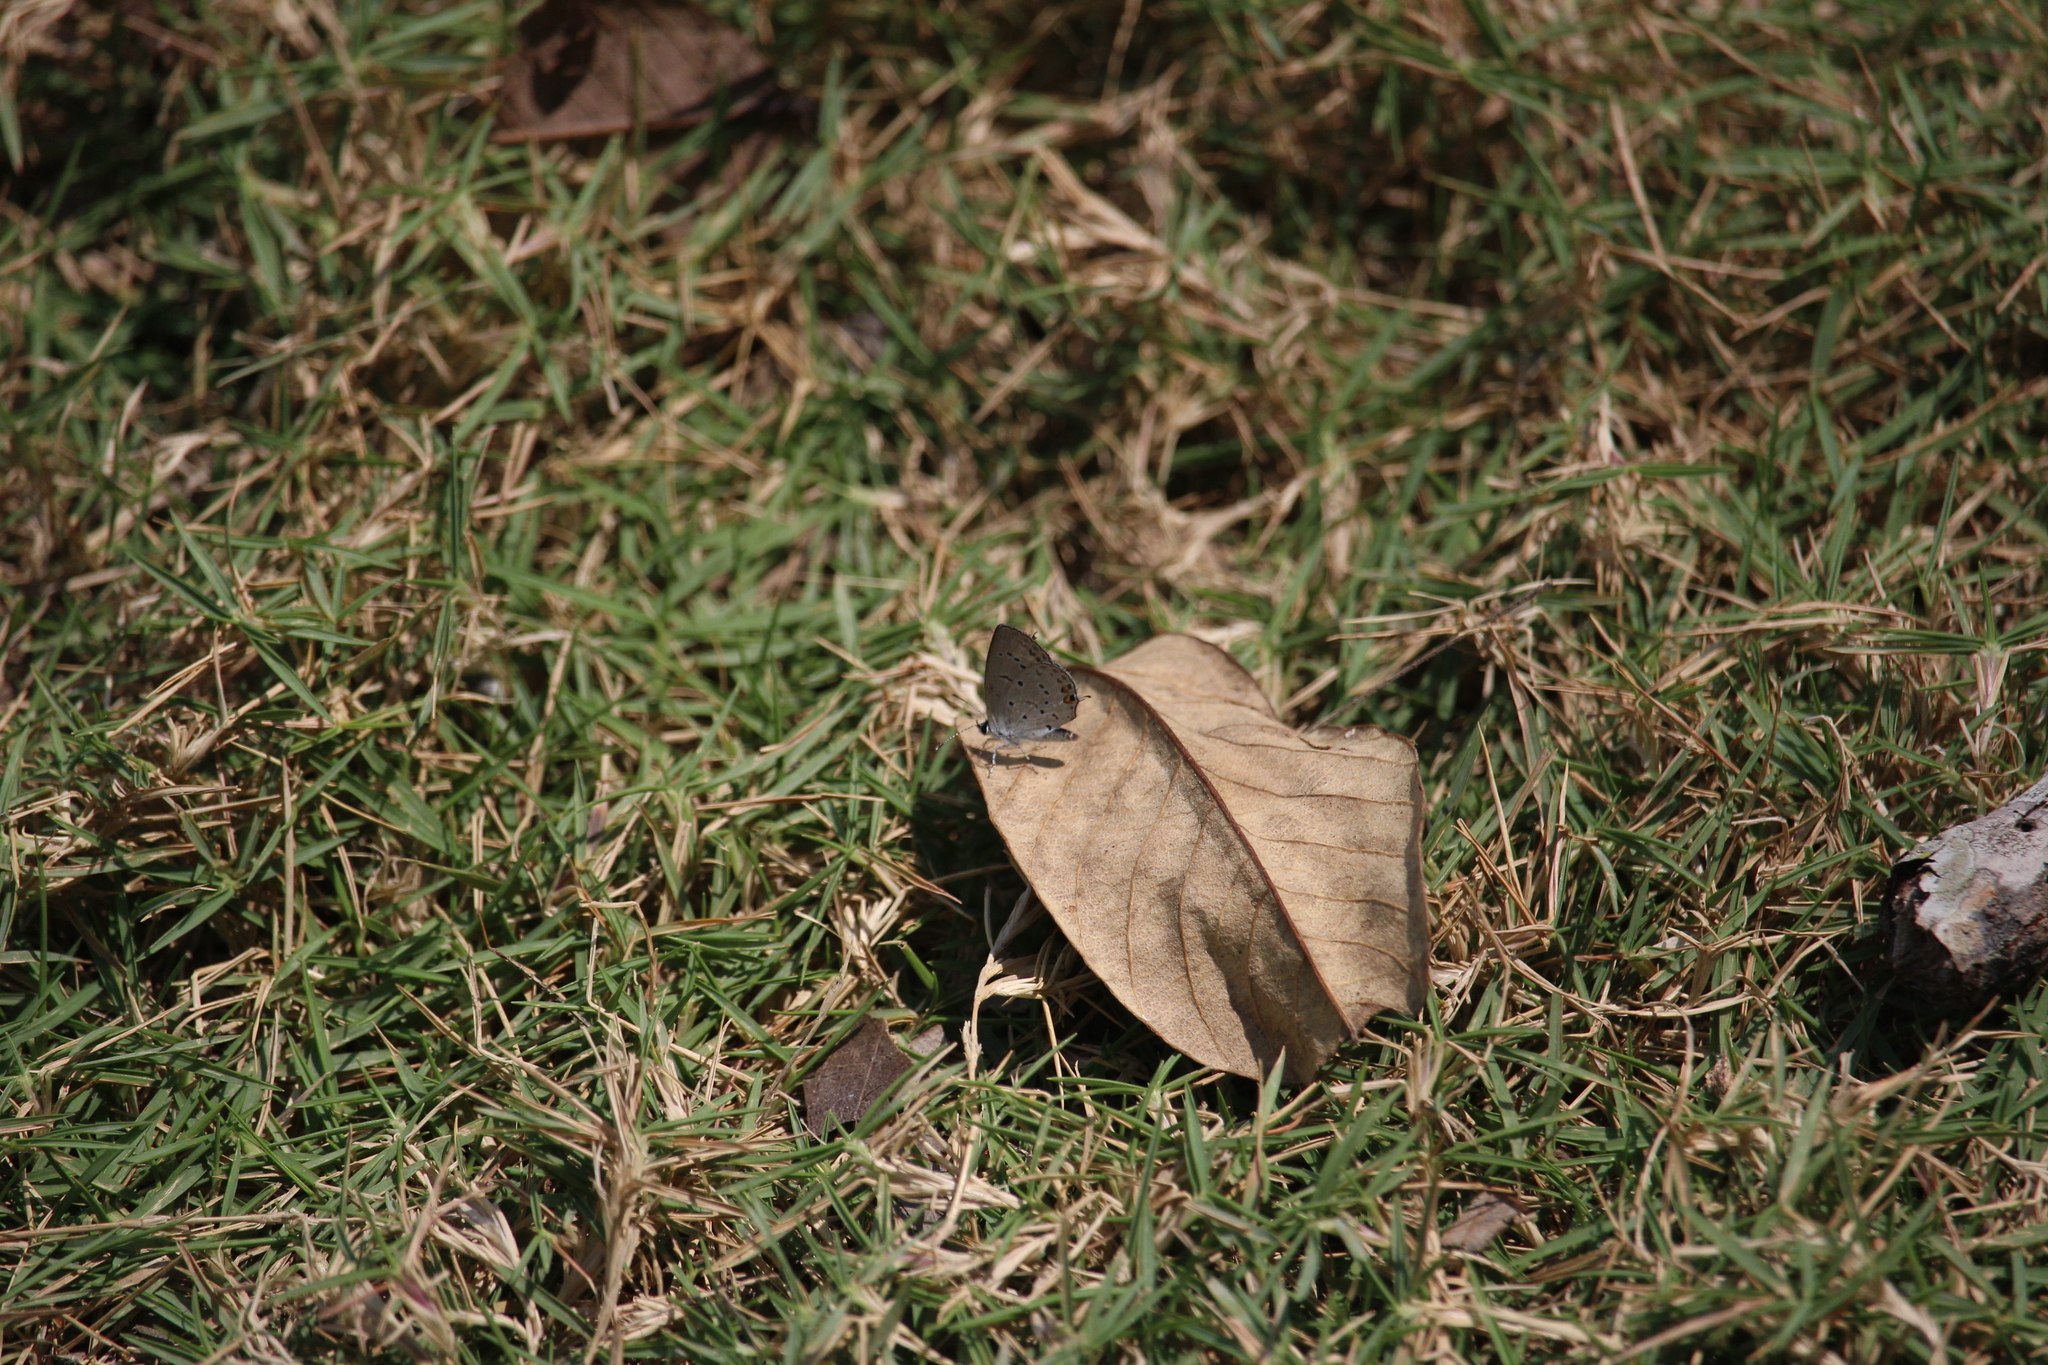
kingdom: Animalia
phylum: Arthropoda
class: Insecta
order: Lepidoptera
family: Lycaenidae
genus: Elkalyce
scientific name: Elkalyce comyntas
